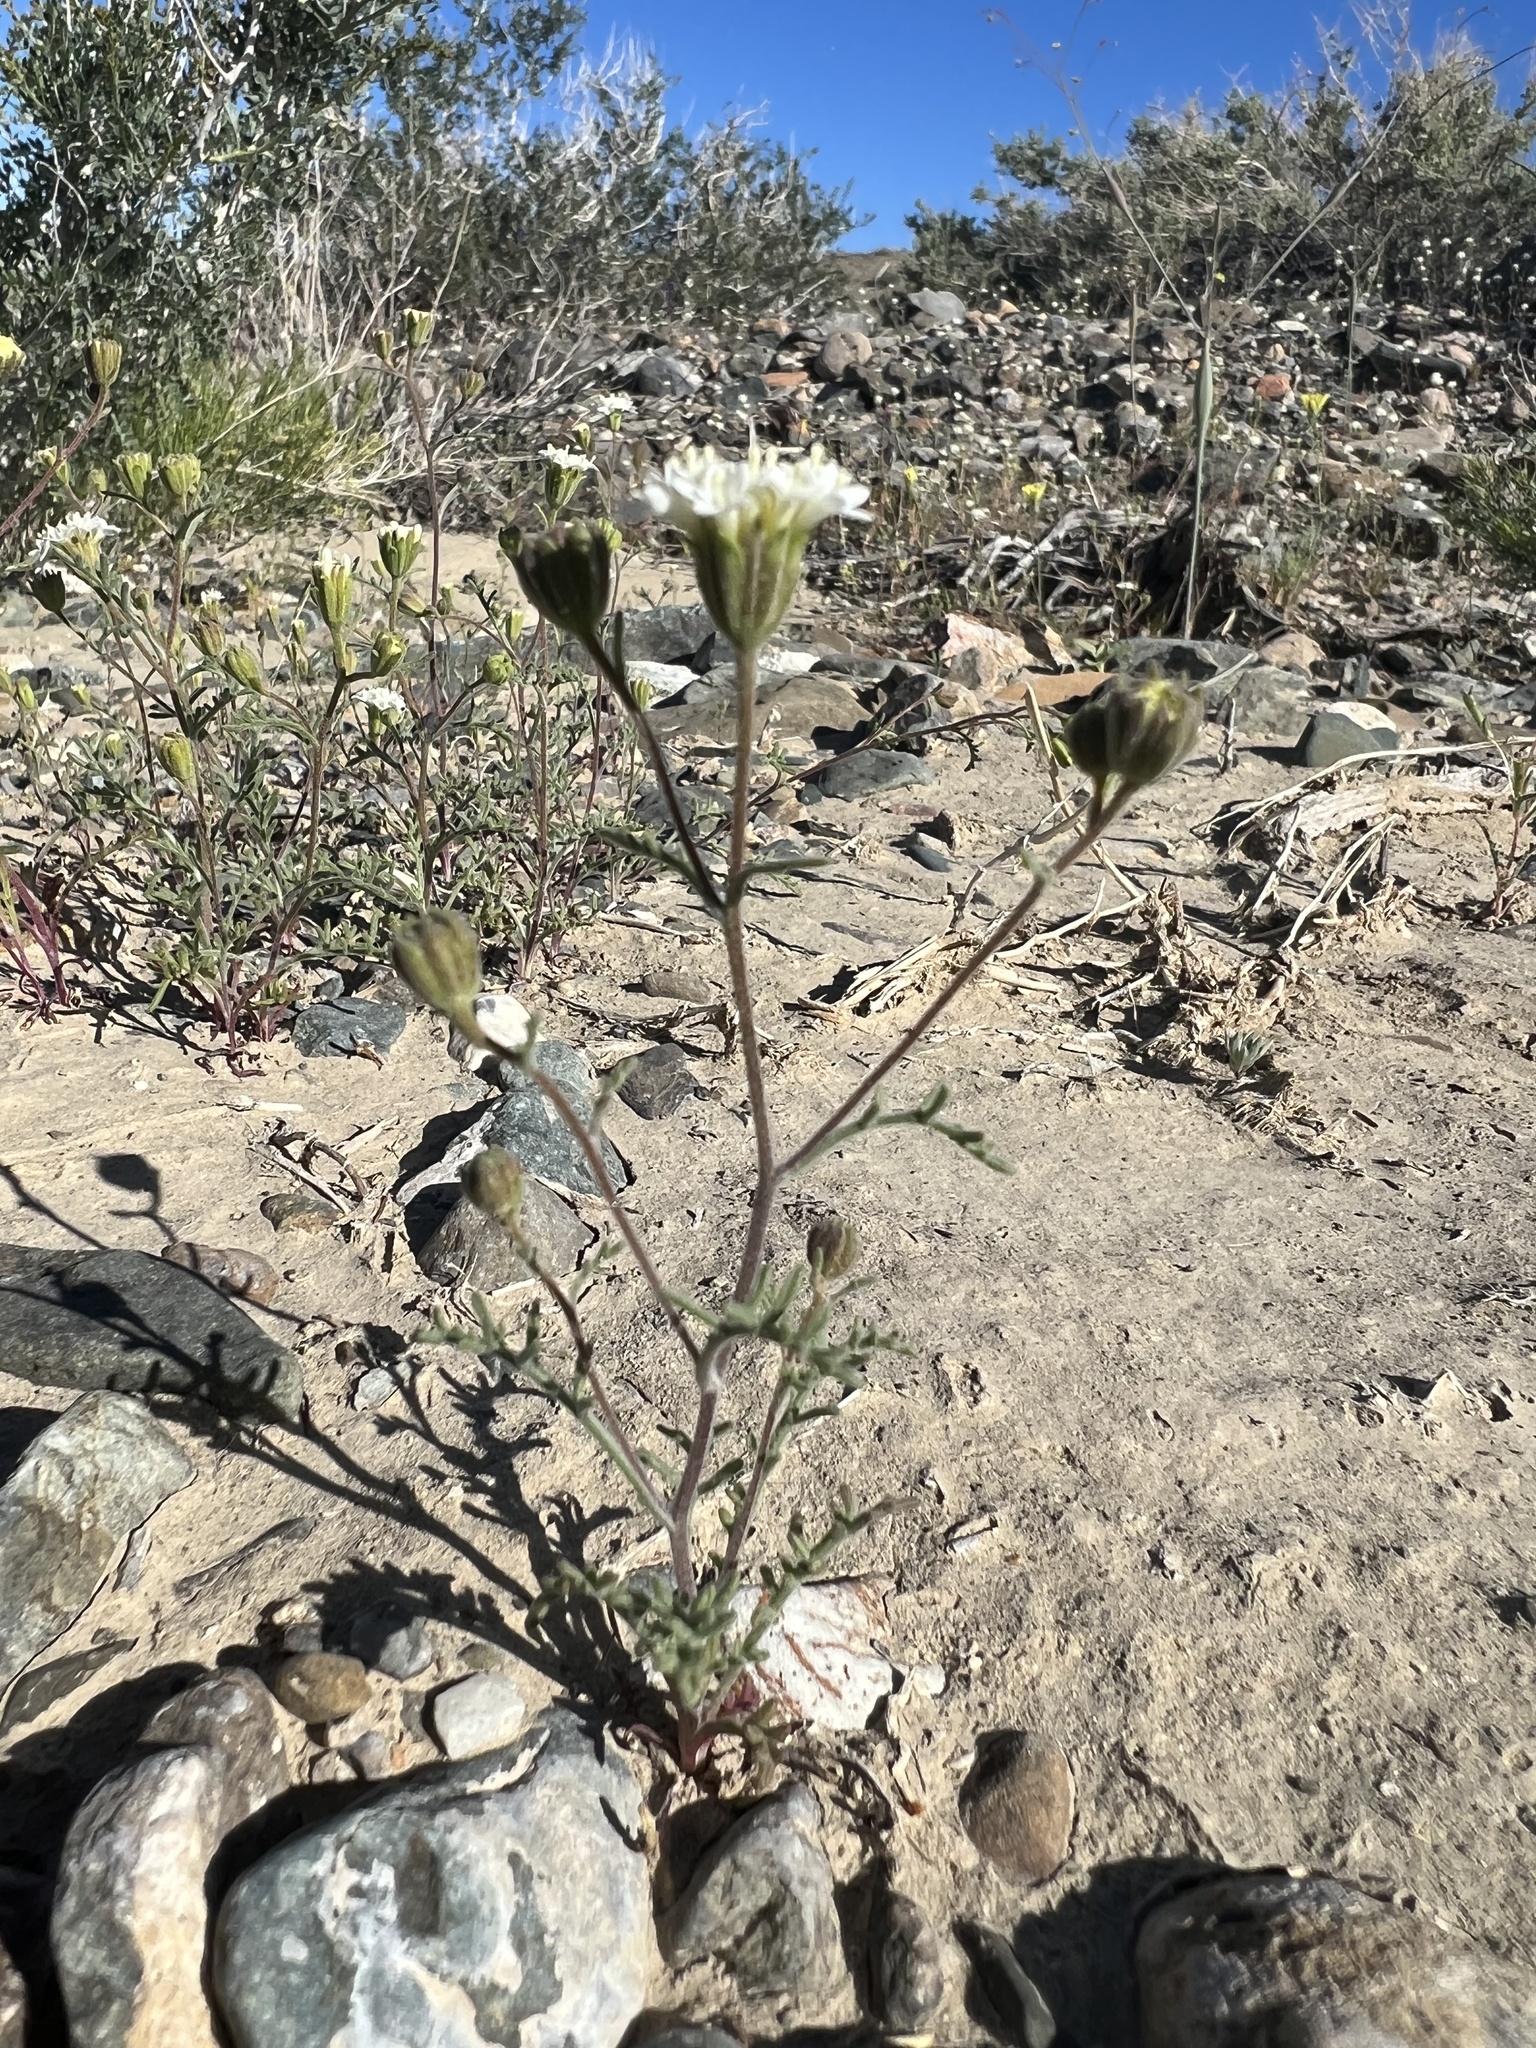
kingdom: Plantae
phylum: Tracheophyta
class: Magnoliopsida
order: Asterales
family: Asteraceae
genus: Chaenactis
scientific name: Chaenactis stevioides
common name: Desert pincushion
